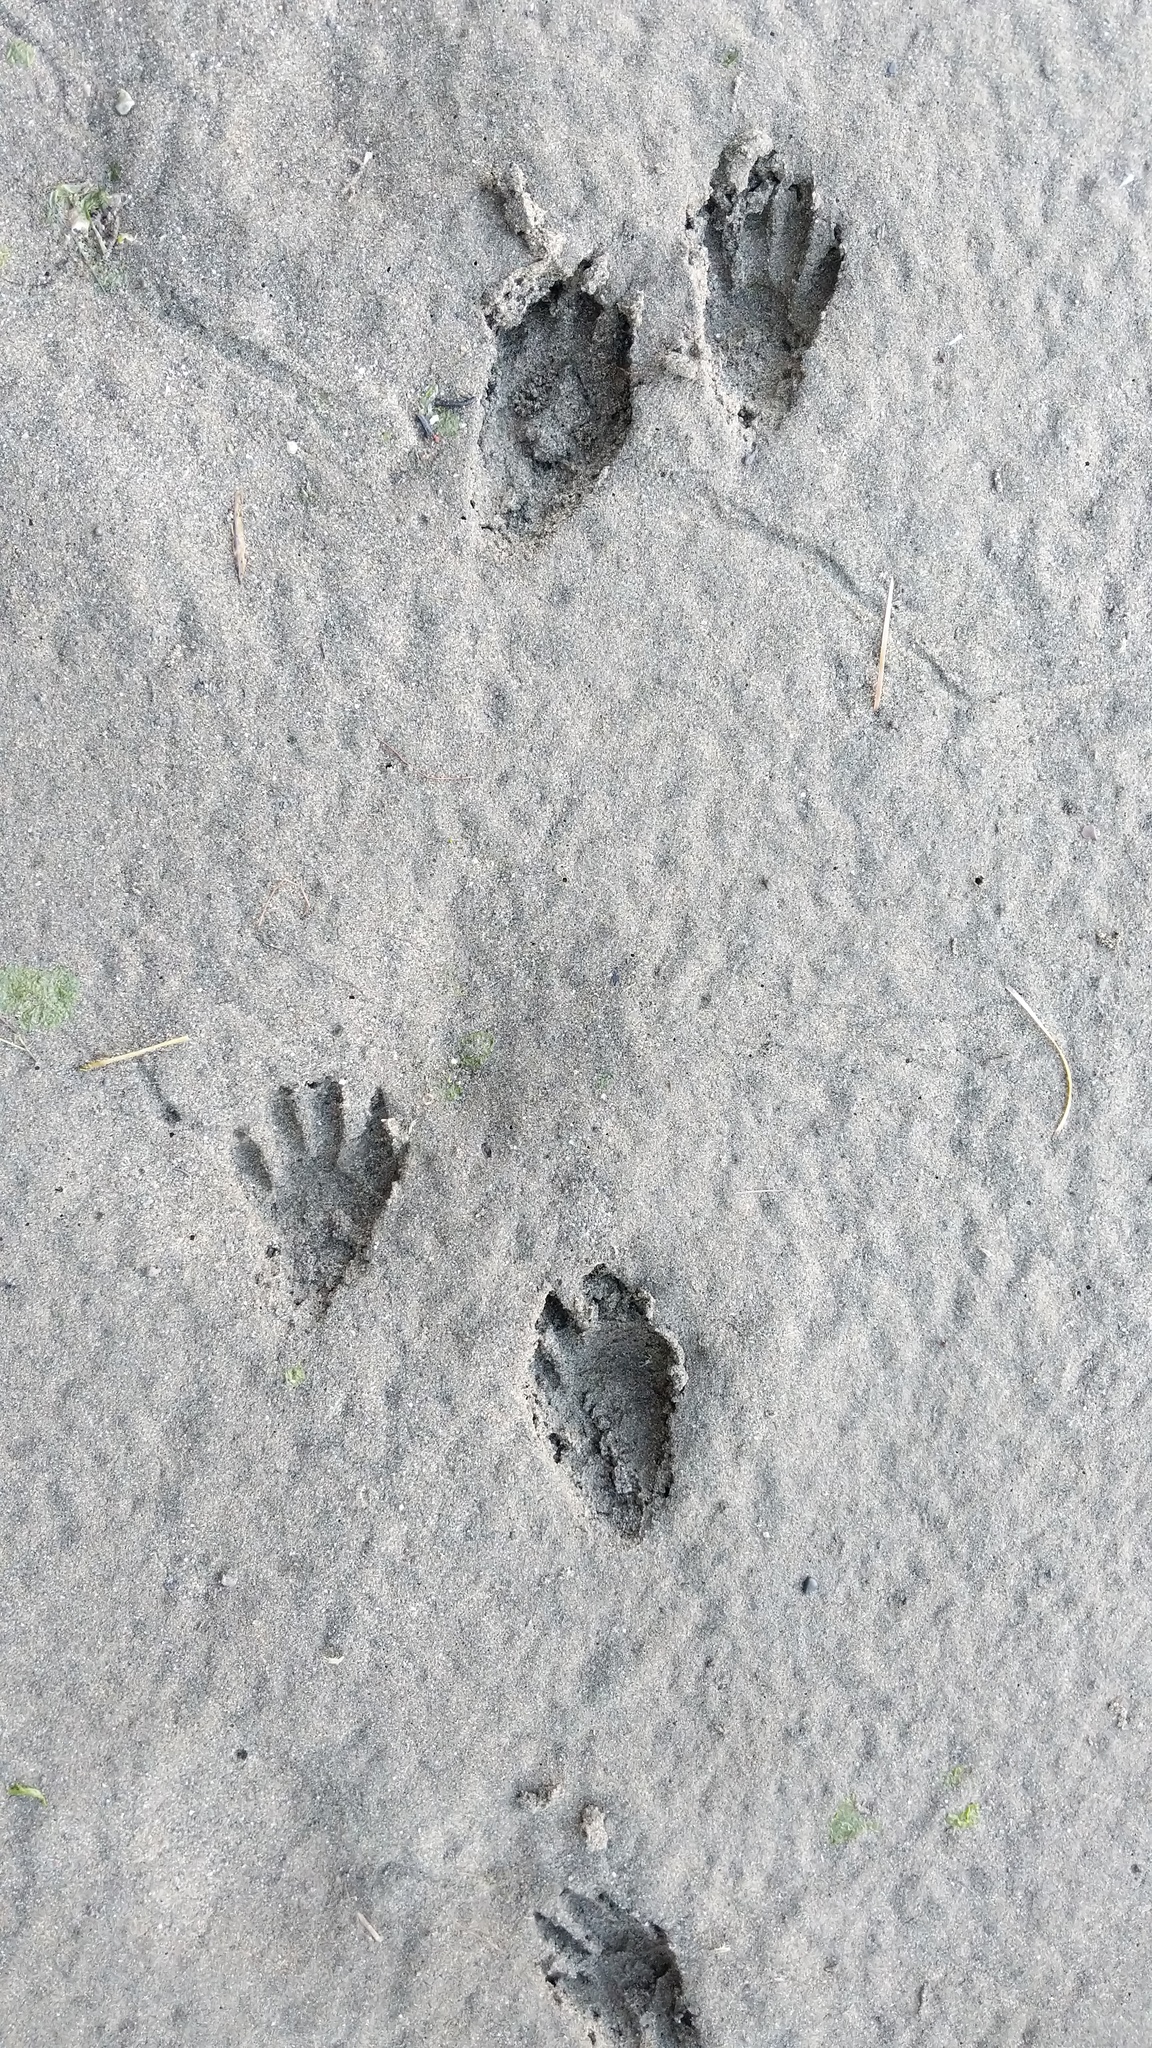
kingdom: Animalia
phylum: Chordata
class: Mammalia
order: Carnivora
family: Procyonidae
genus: Procyon
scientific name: Procyon lotor
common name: Raccoon
